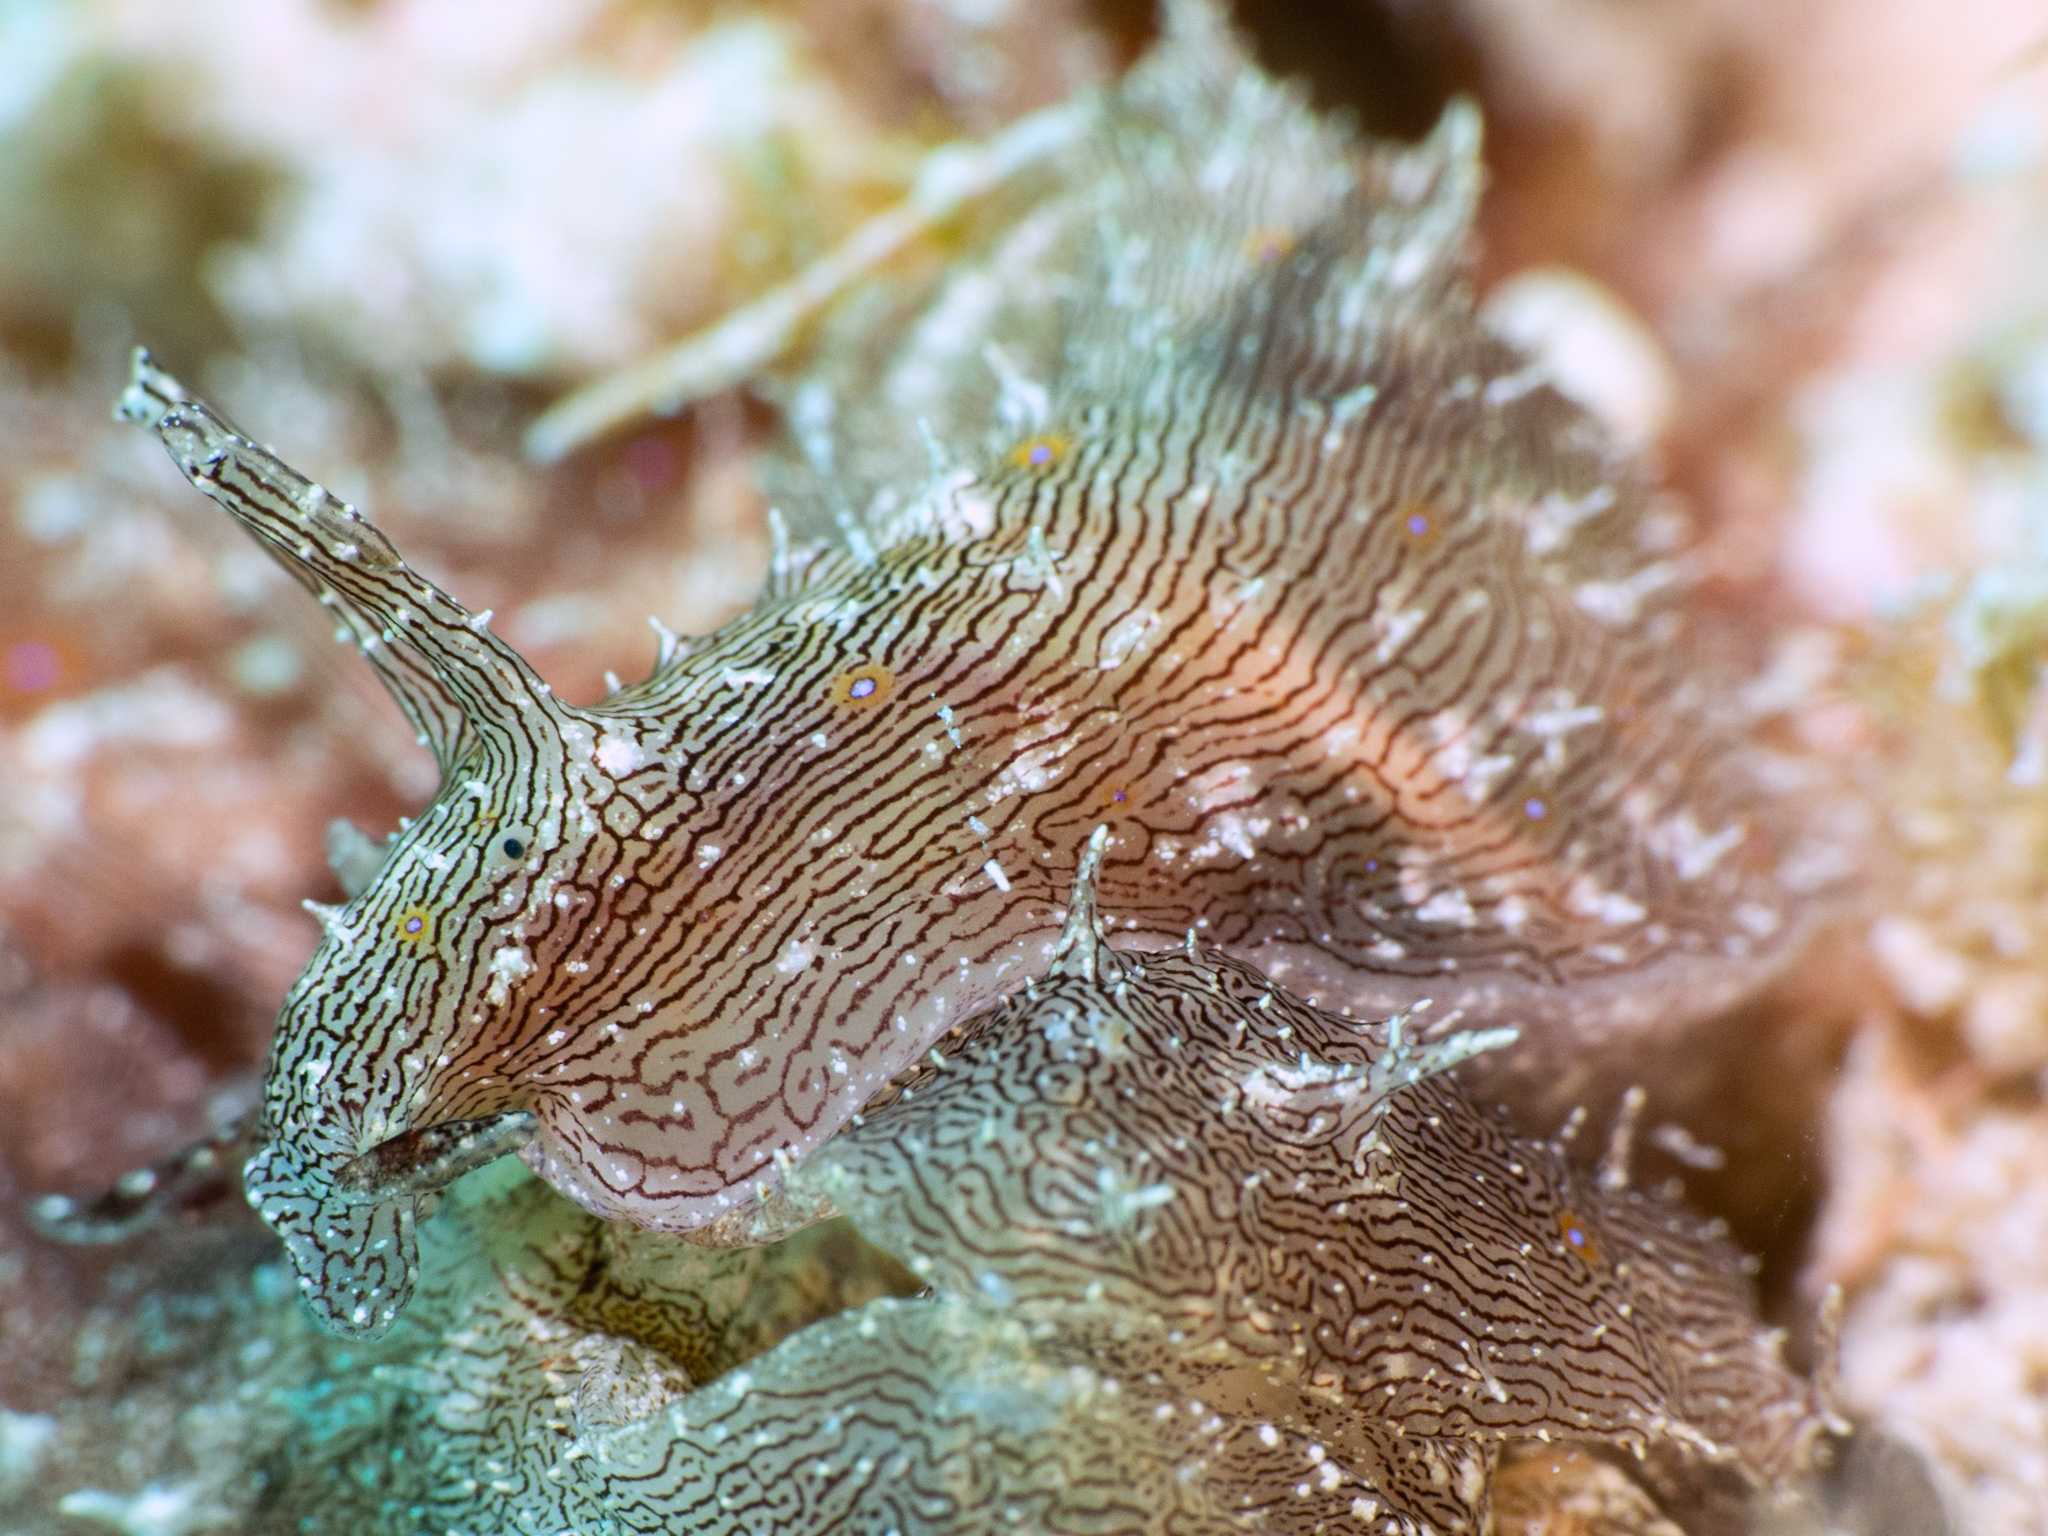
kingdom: Animalia
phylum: Mollusca
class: Gastropoda
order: Aplysiida
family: Aplysiidae
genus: Stylocheilus
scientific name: Stylocheilus polyomma
